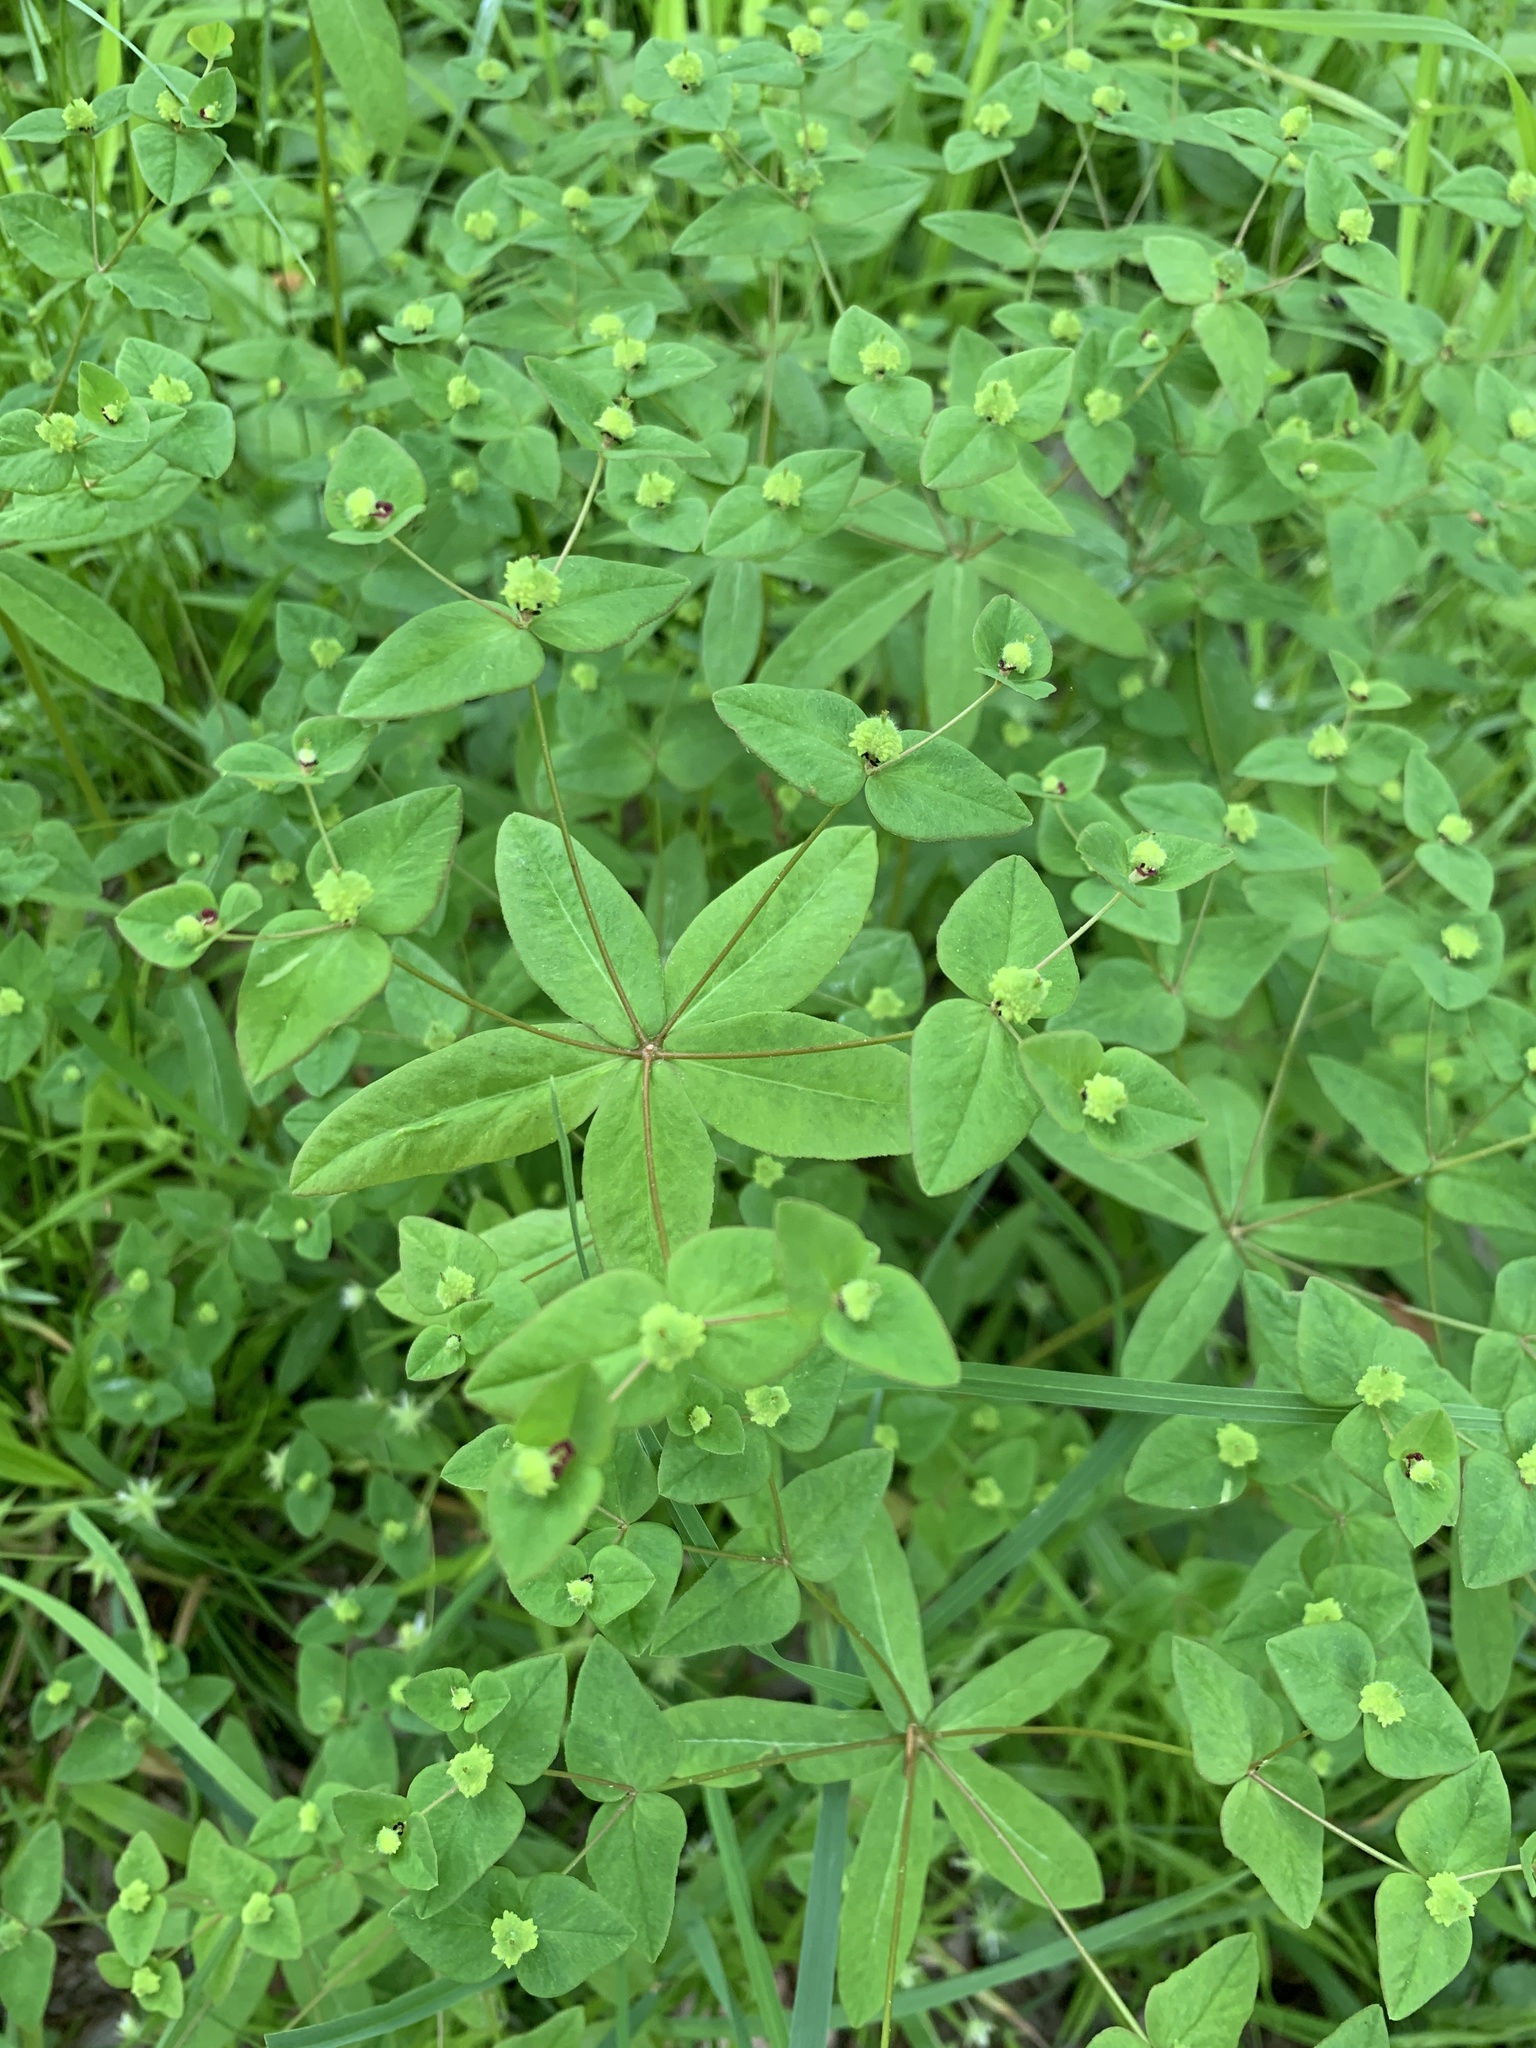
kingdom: Plantae
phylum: Tracheophyta
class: Magnoliopsida
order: Malpighiales
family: Euphorbiaceae
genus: Euphorbia
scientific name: Euphorbia dulcis
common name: Sweet spurge
